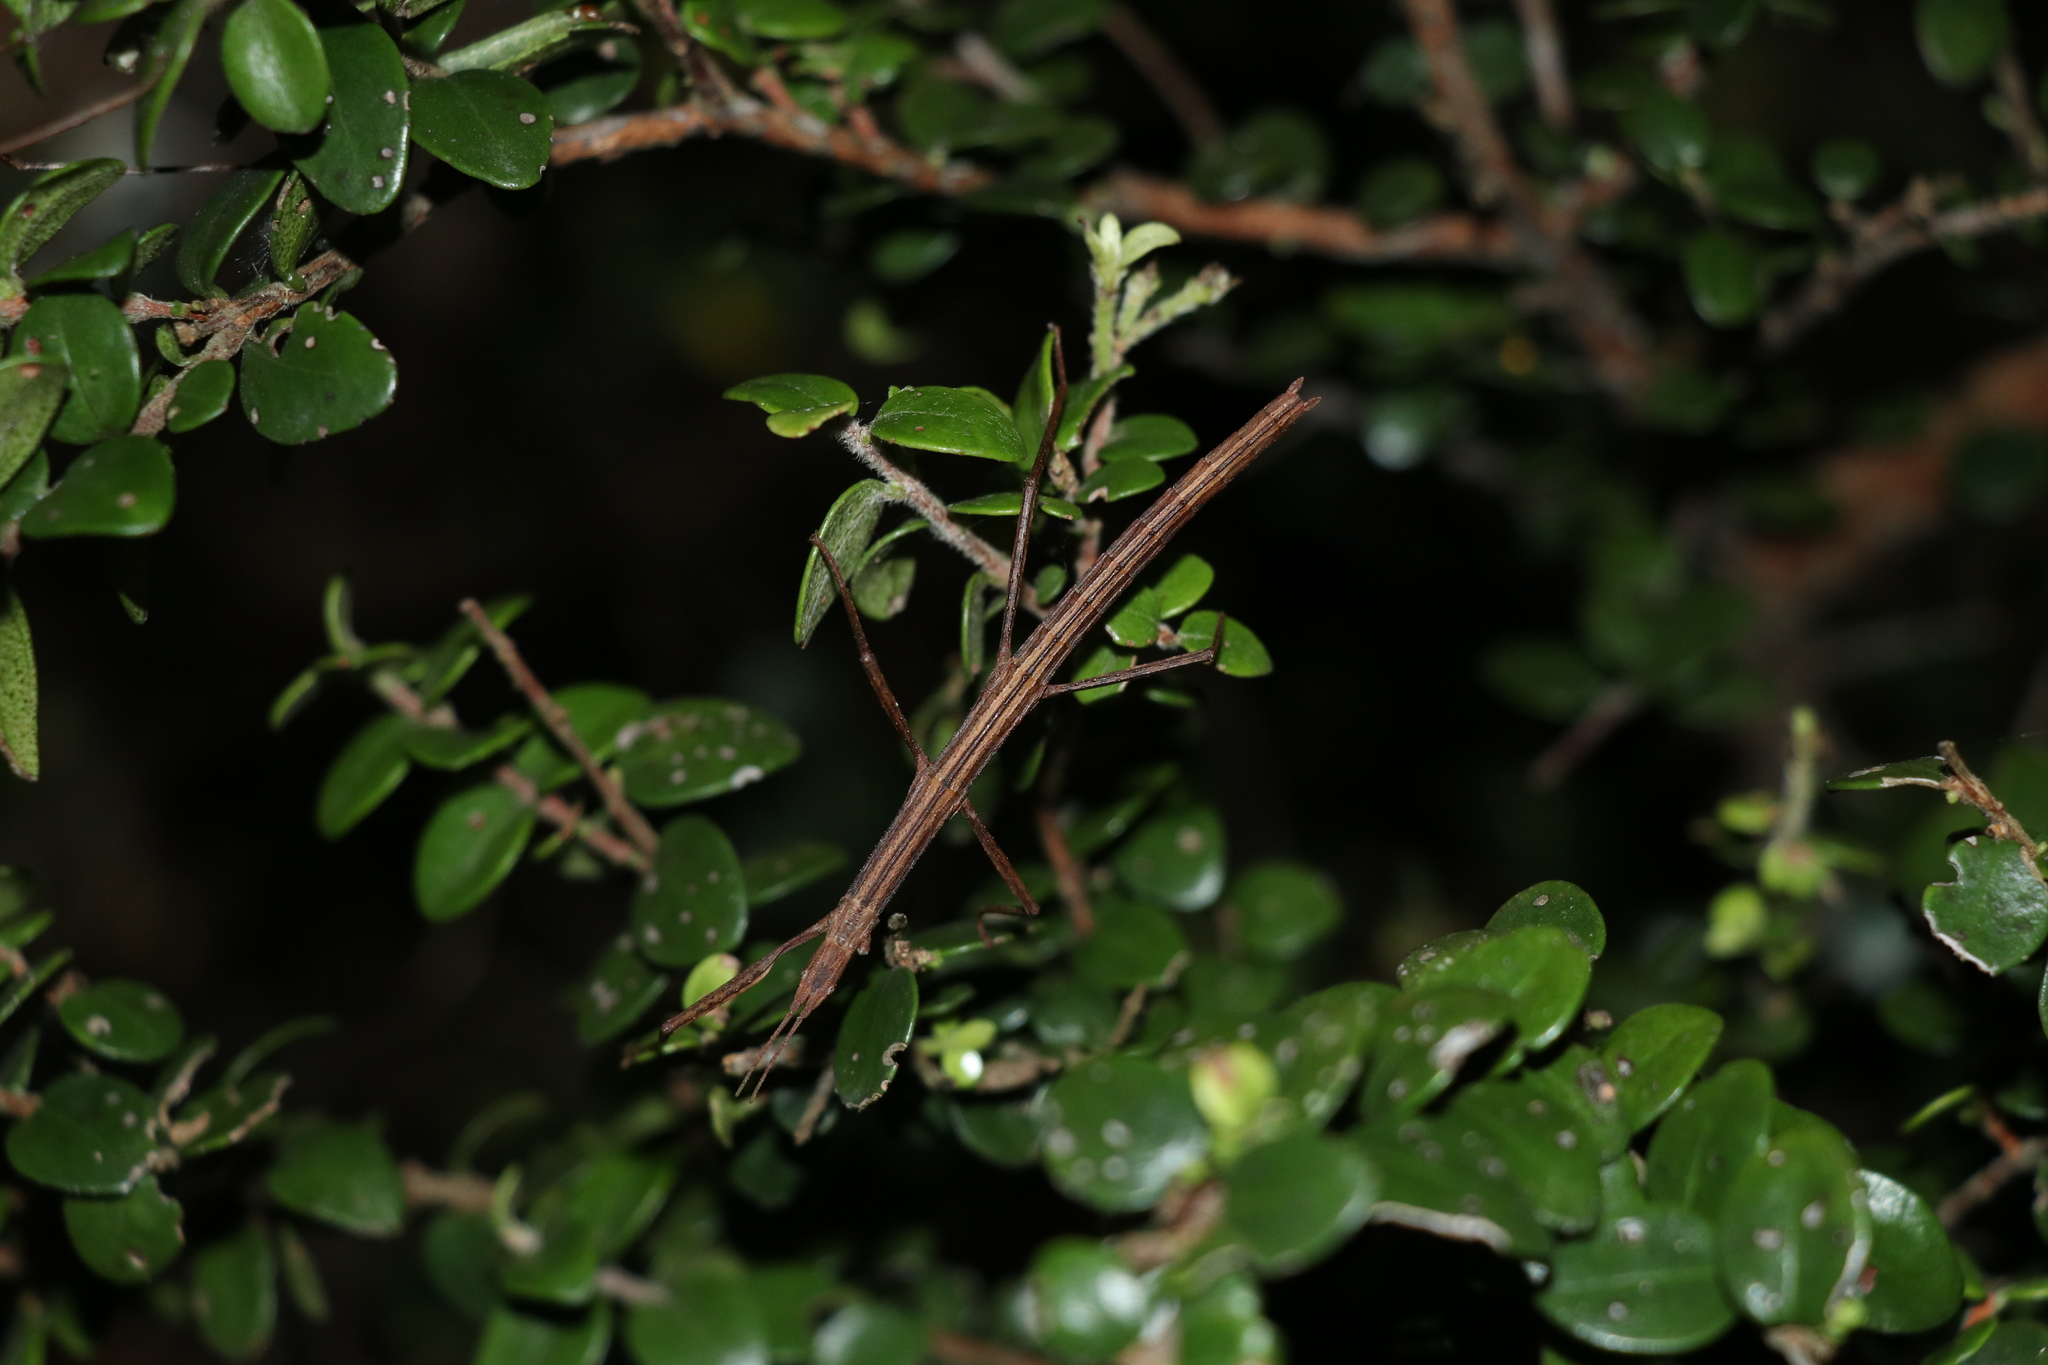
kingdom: Animalia
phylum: Arthropoda
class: Insecta
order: Phasmida
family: Phasmatidae
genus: Tectarchus
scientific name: Tectarchus huttoni
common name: The common ridge-backed stick insect
